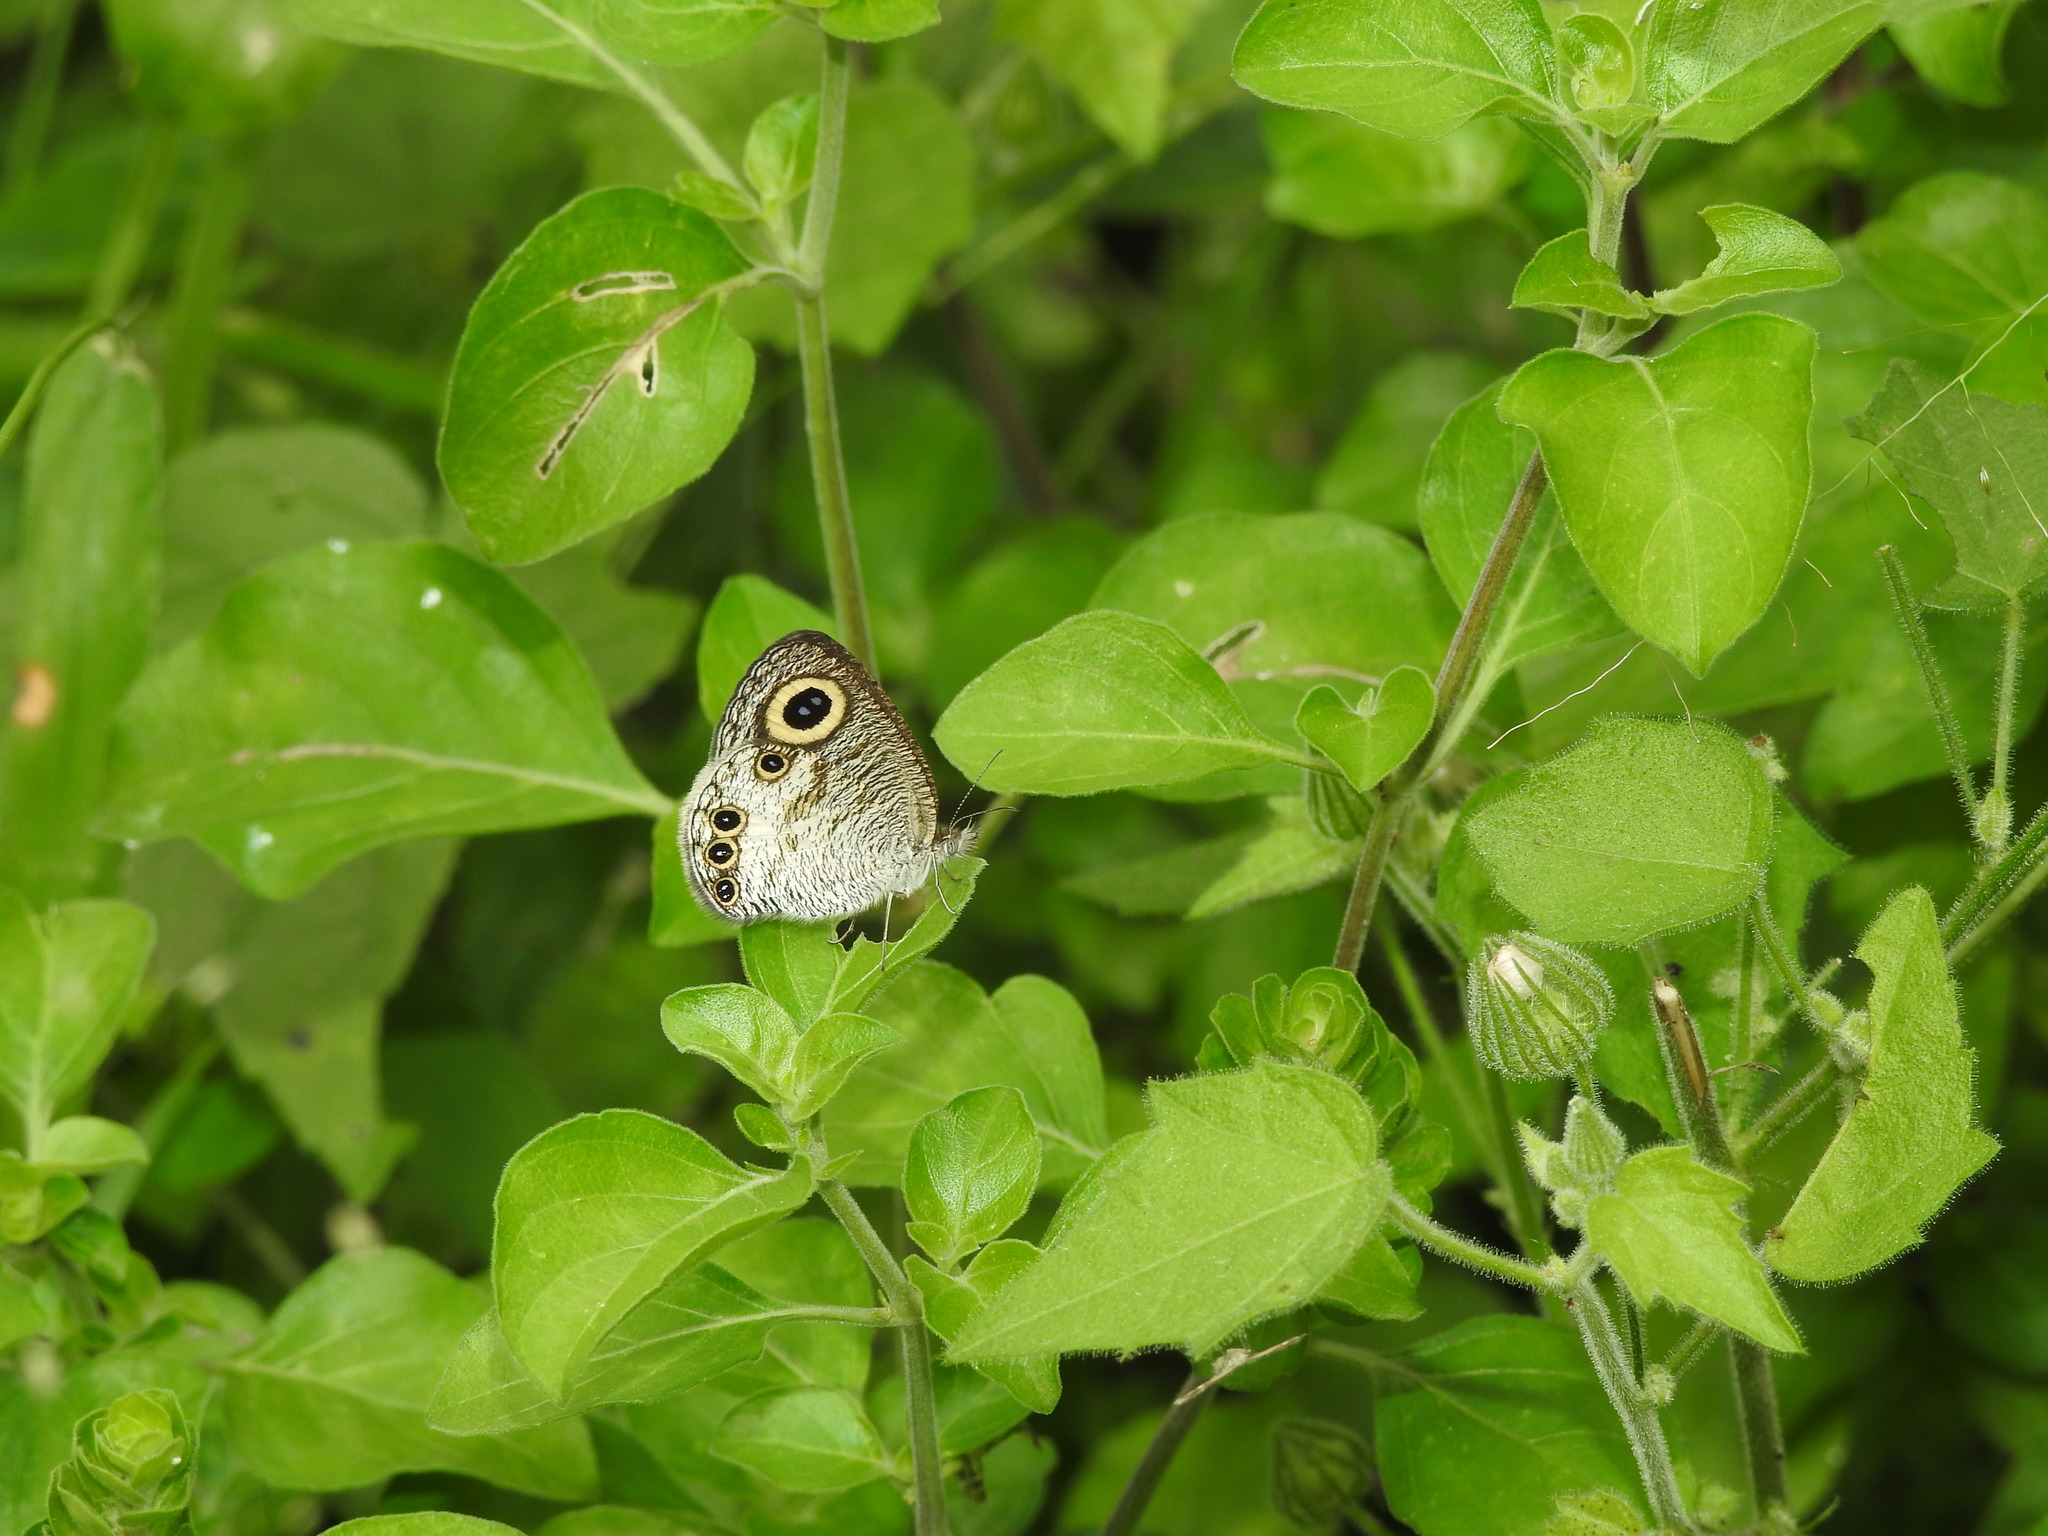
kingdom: Animalia
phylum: Arthropoda
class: Insecta
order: Lepidoptera
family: Nymphalidae
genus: Ypthima
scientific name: Ypthima ceylonica
